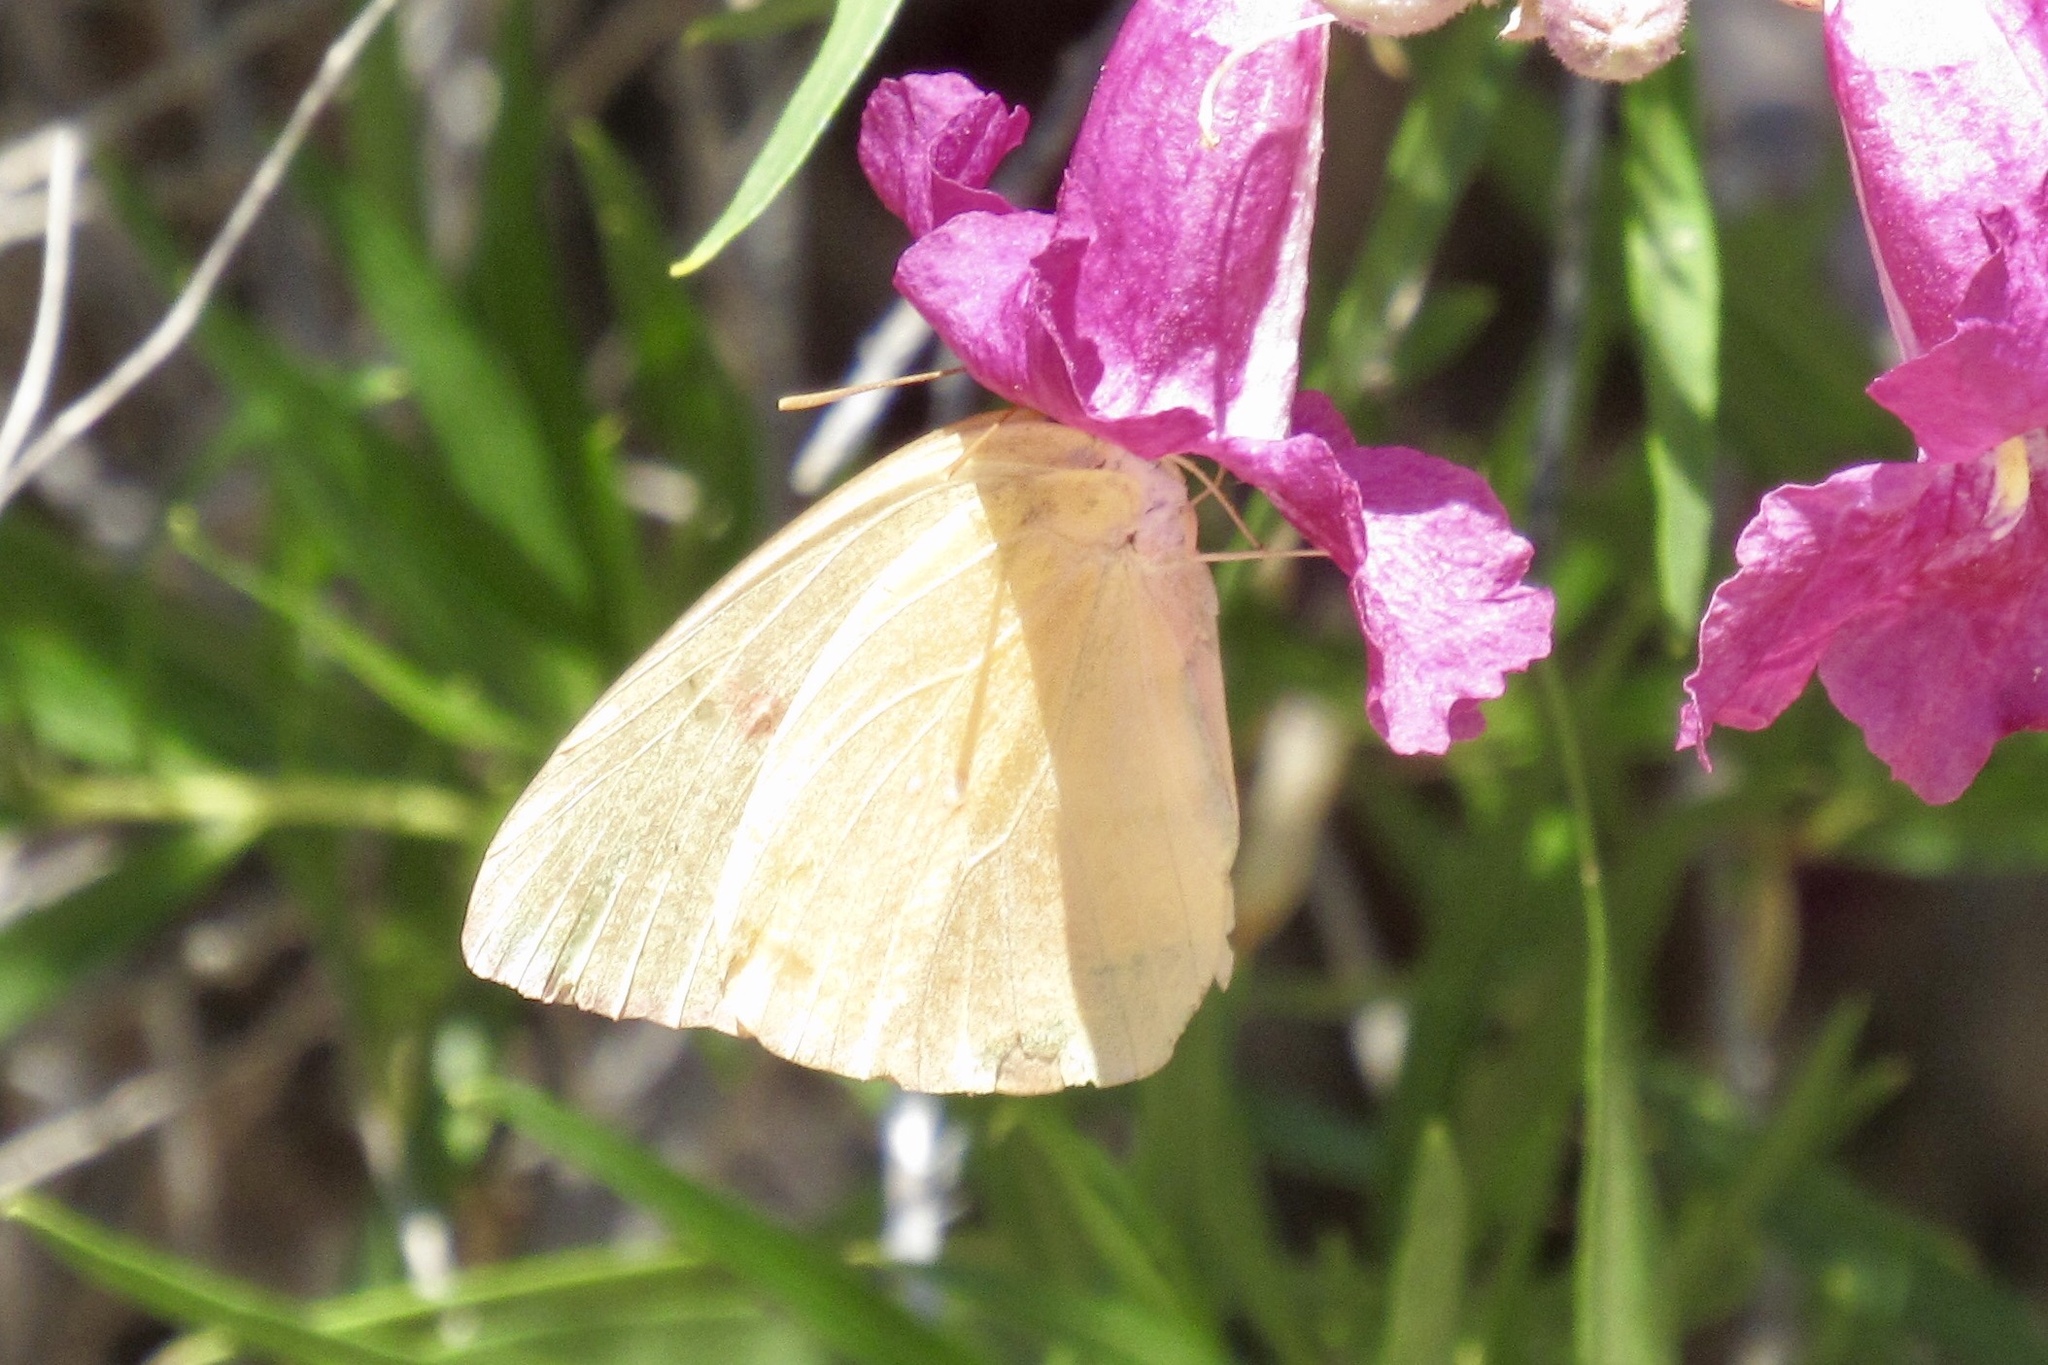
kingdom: Animalia
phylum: Arthropoda
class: Insecta
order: Lepidoptera
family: Pieridae
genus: Phoebis
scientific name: Phoebis sennae
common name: Cloudless sulphur
